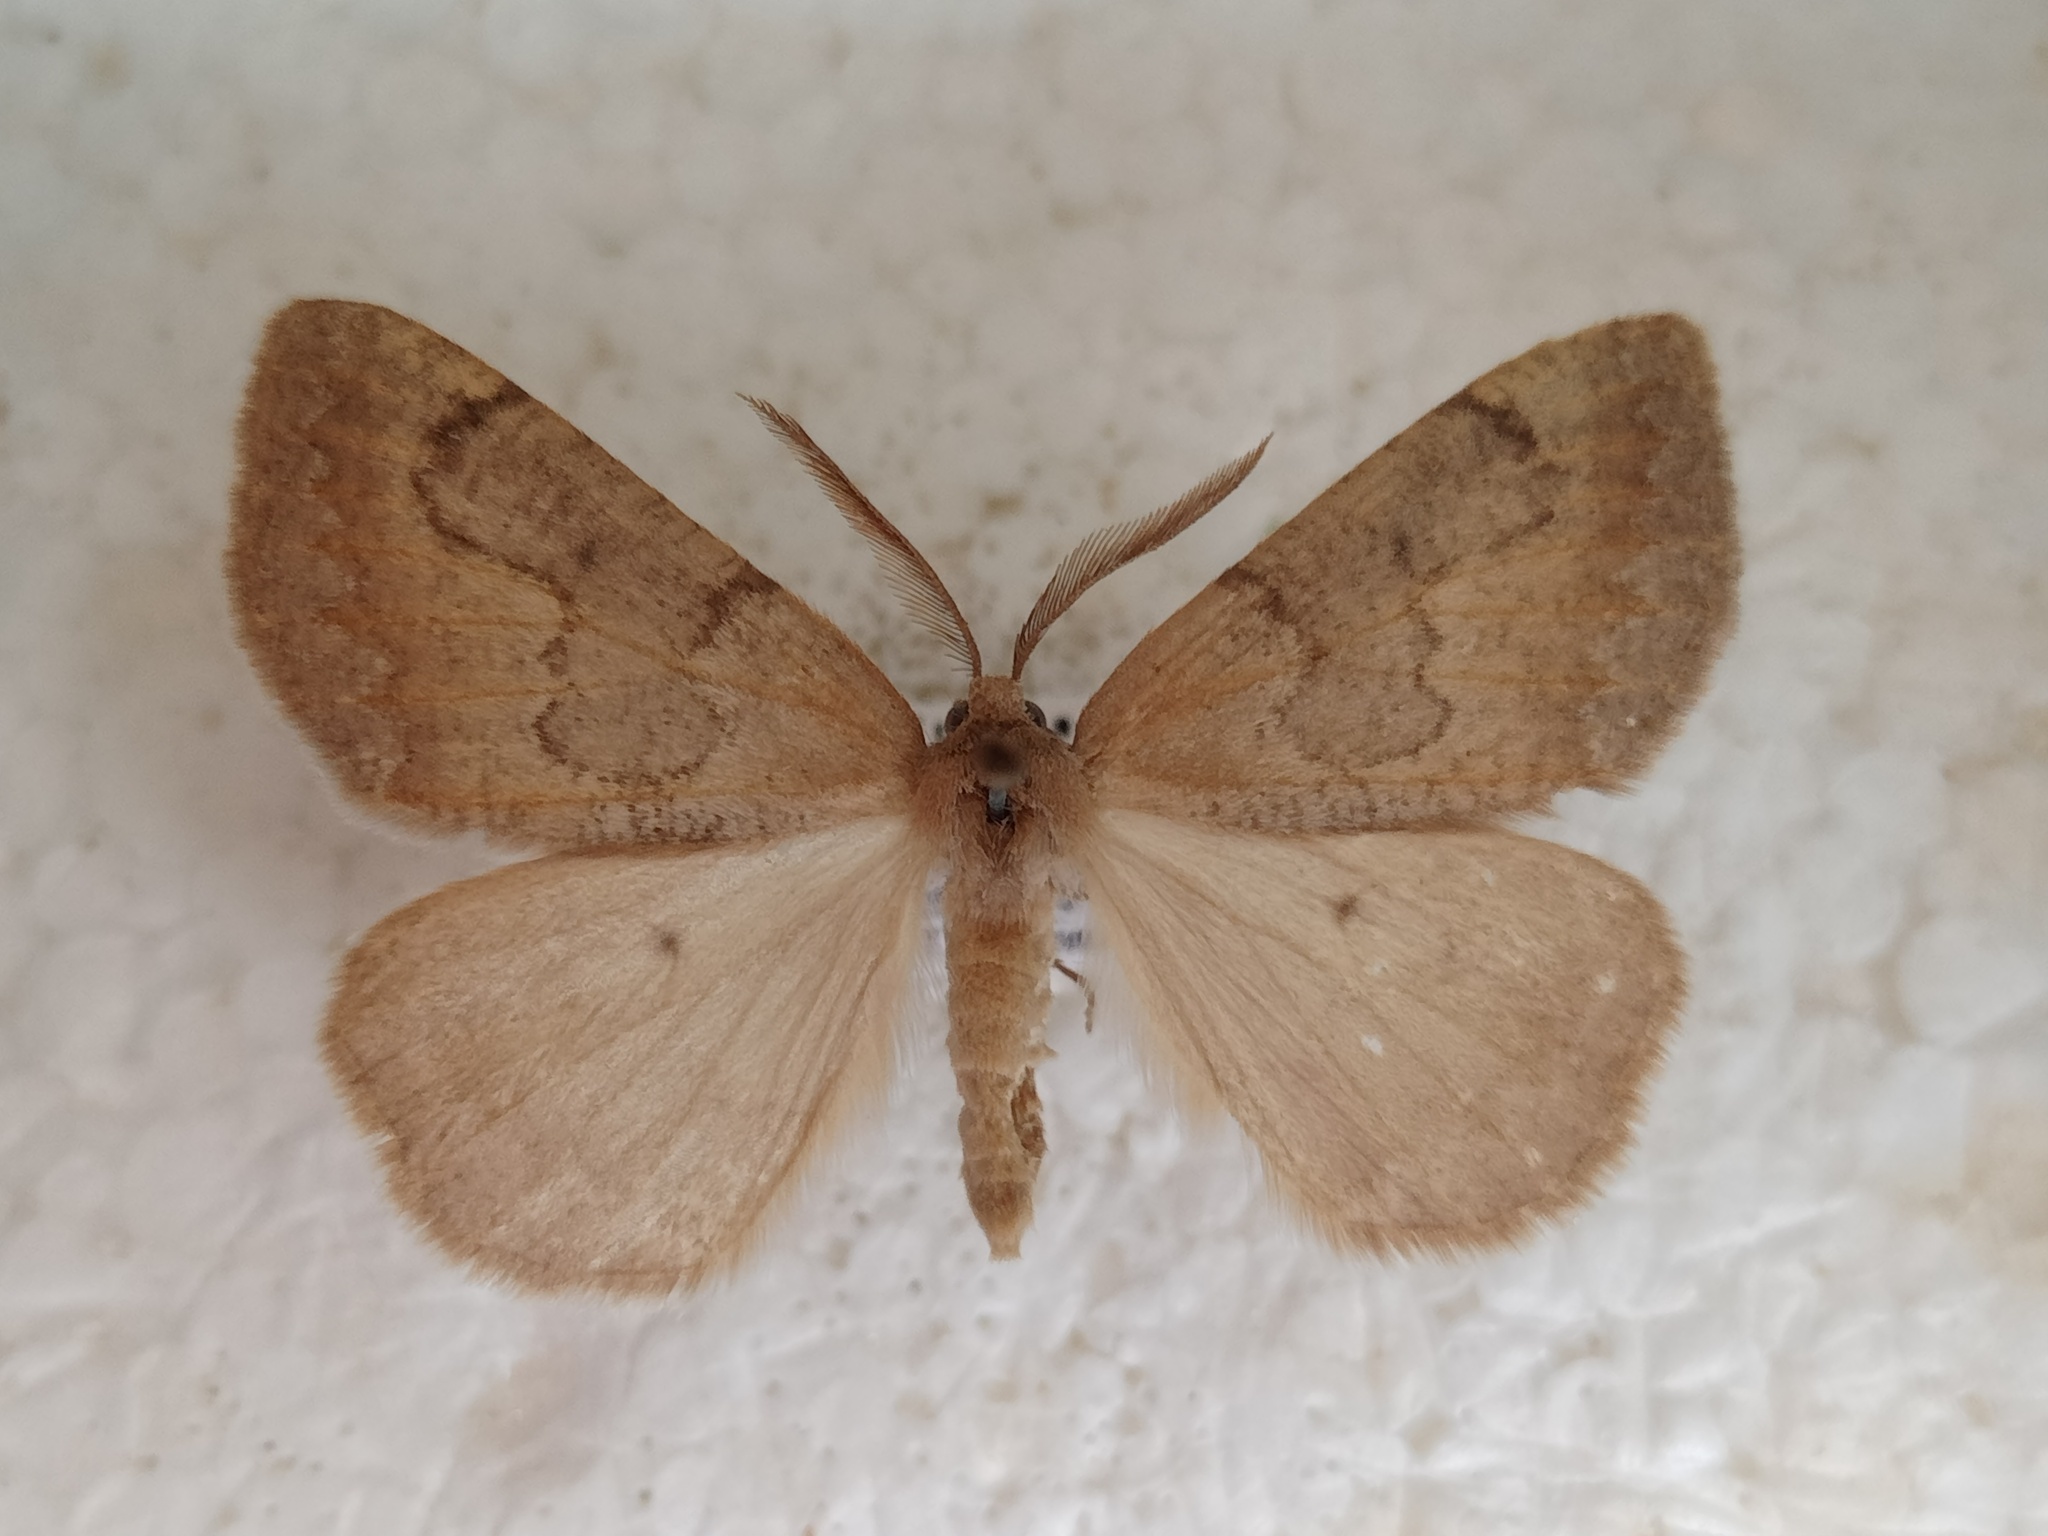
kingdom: Animalia
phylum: Arthropoda
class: Insecta
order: Lepidoptera
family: Geometridae
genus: Onychora
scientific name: Onychora agaritharia
